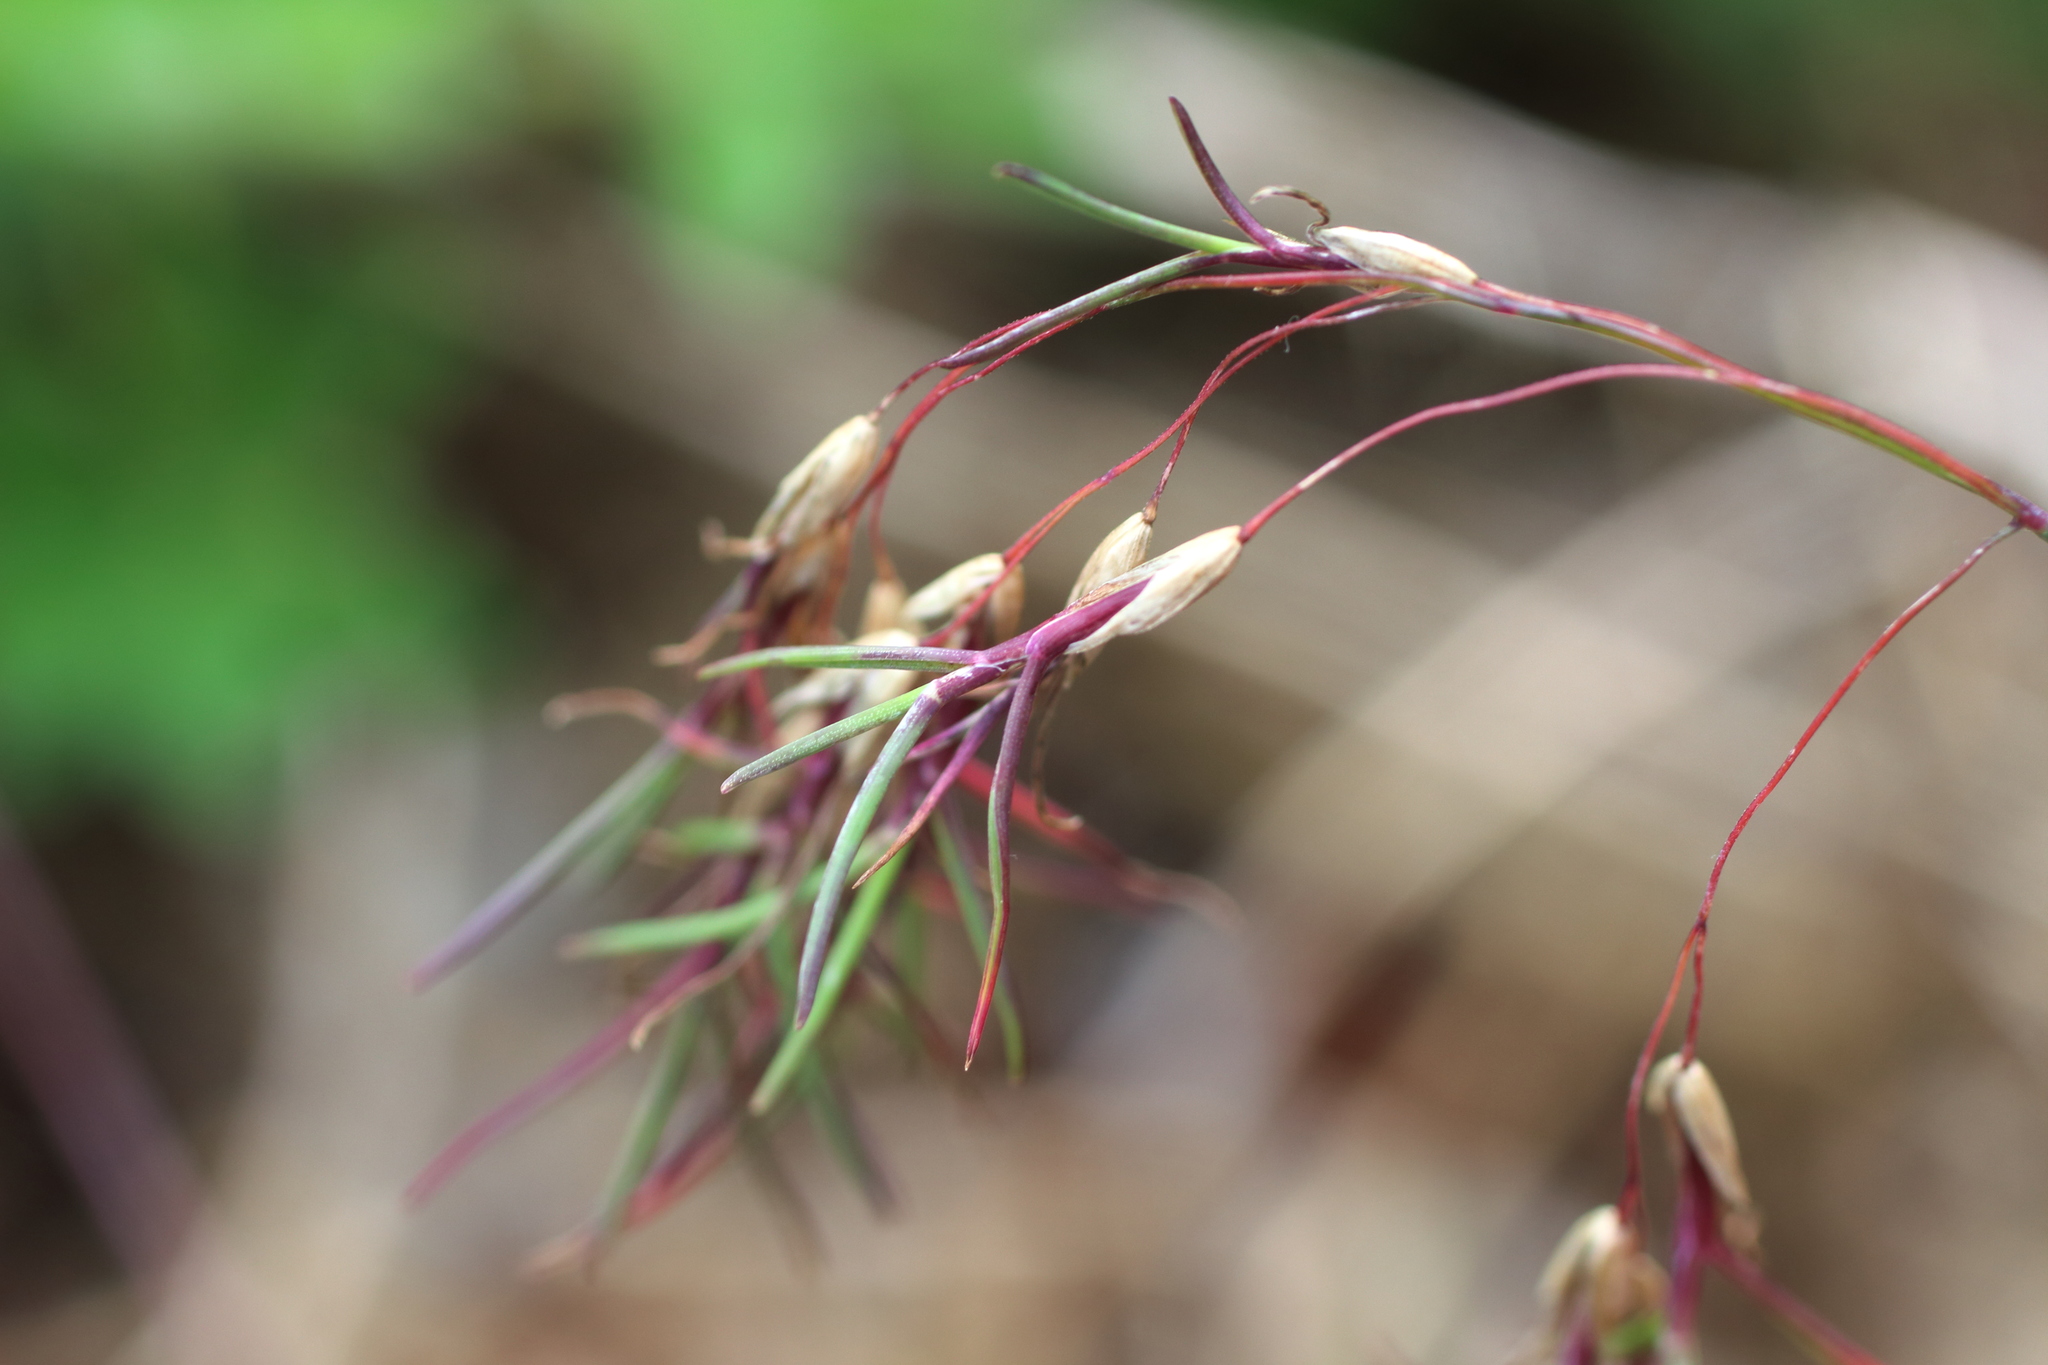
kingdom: Plantae
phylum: Tracheophyta
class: Liliopsida
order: Poales
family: Poaceae
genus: Poa
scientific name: Poa alpina
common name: Alpine bluegrass
